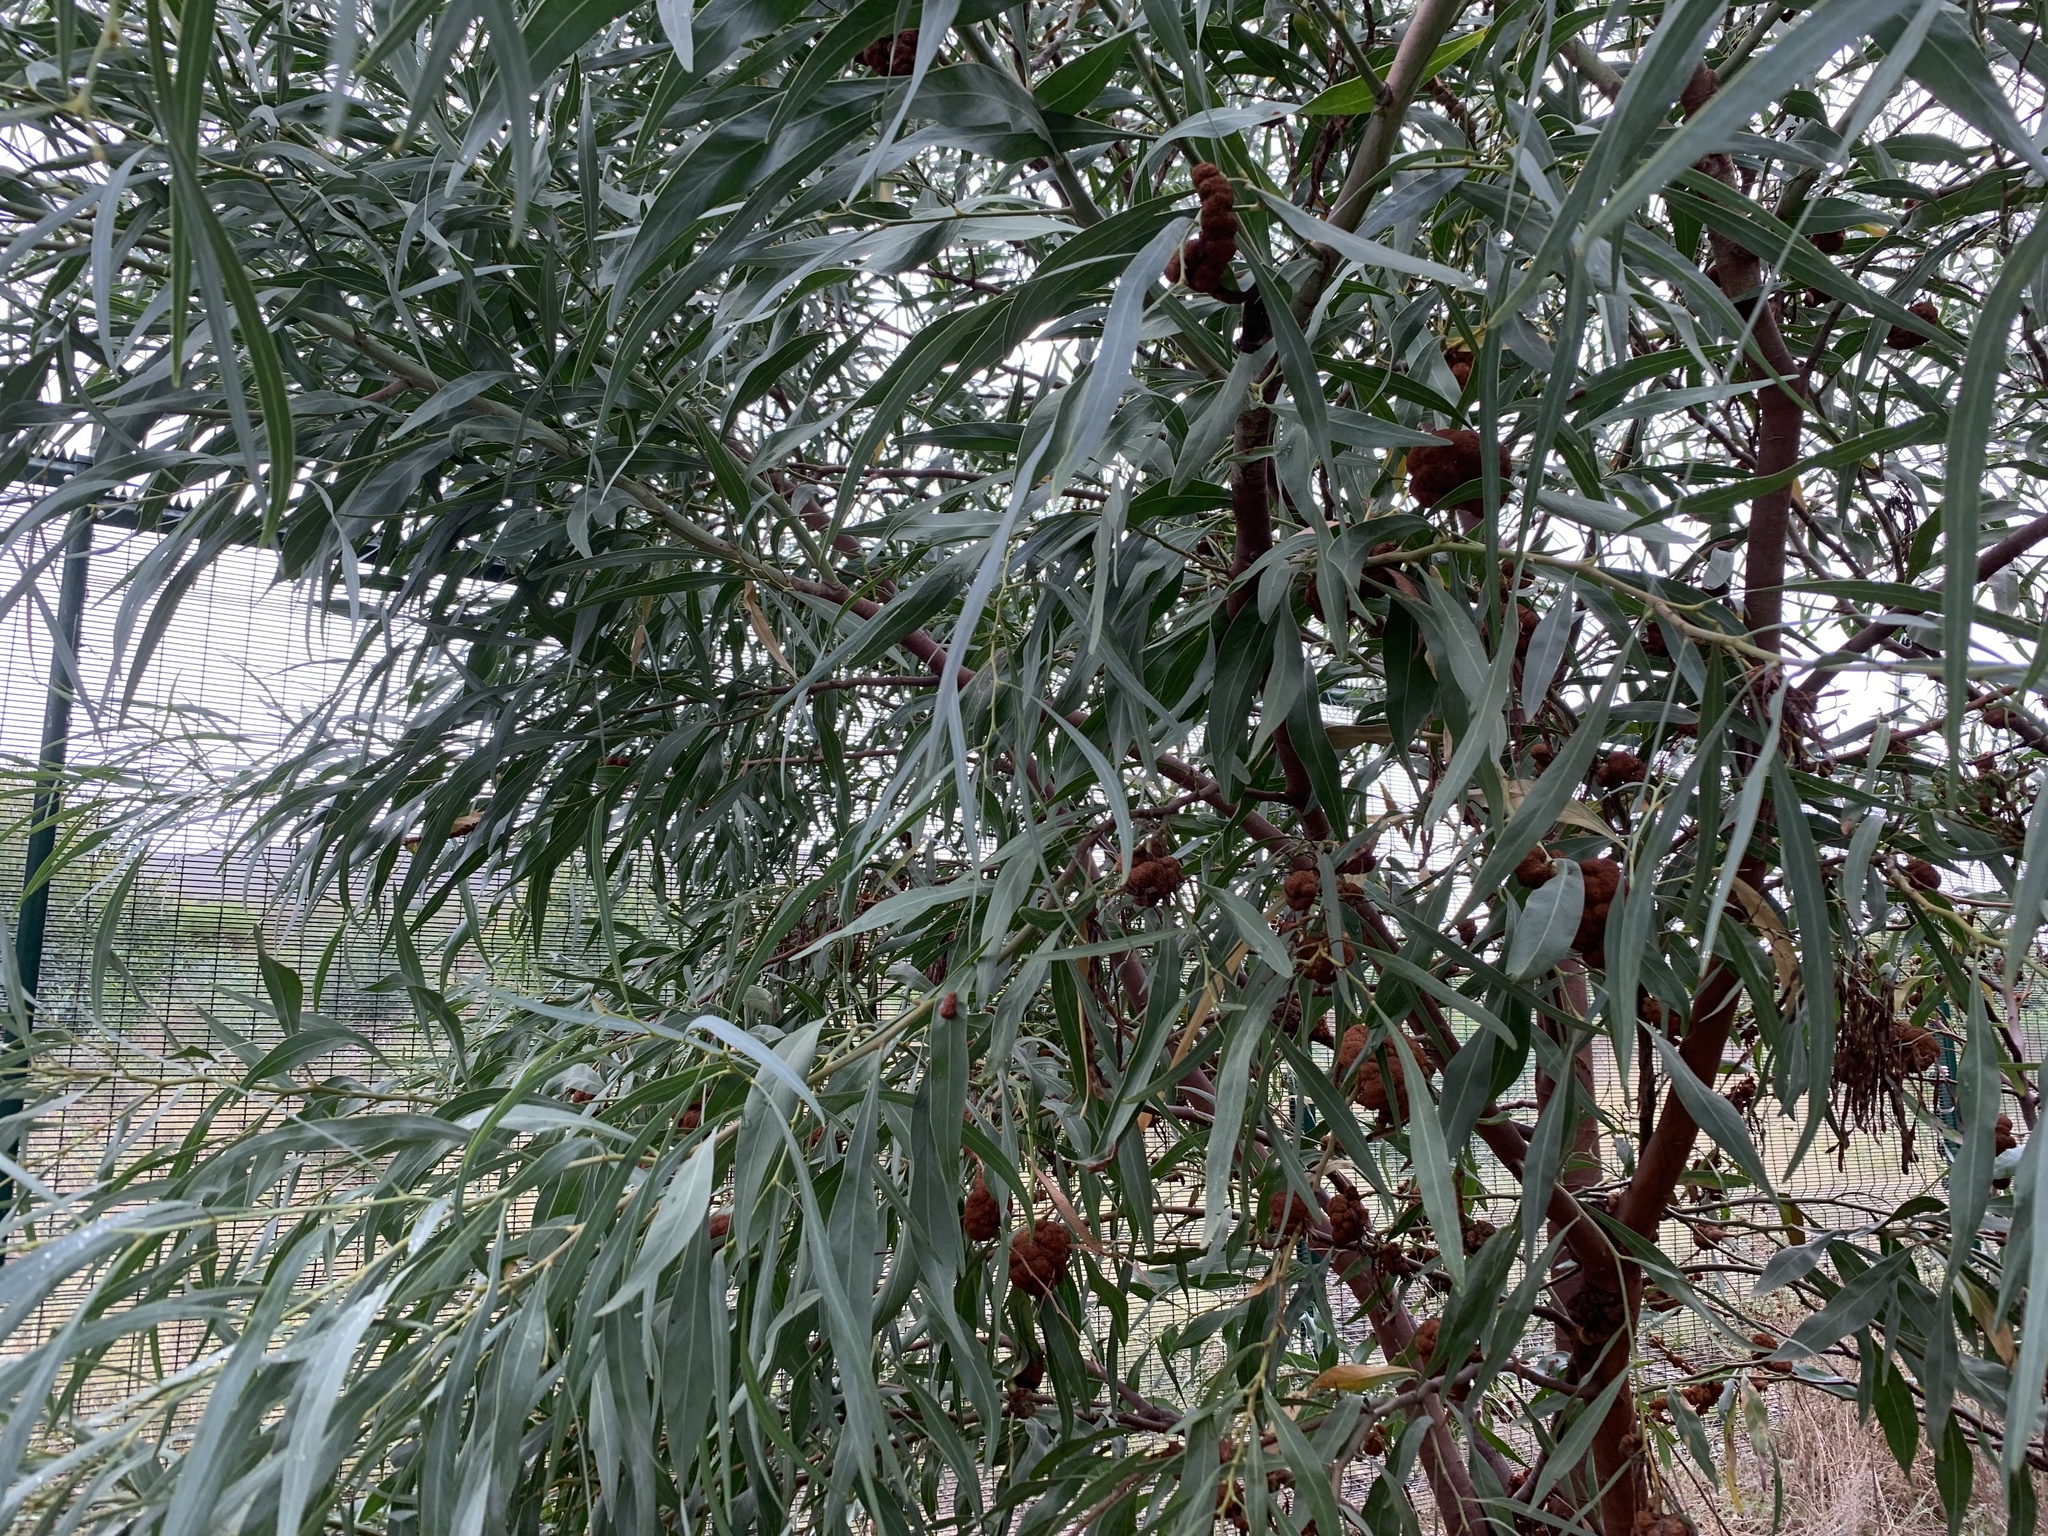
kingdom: Plantae
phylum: Tracheophyta
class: Magnoliopsida
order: Fabales
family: Fabaceae
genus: Acacia
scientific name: Acacia saligna
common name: Orange wattle
